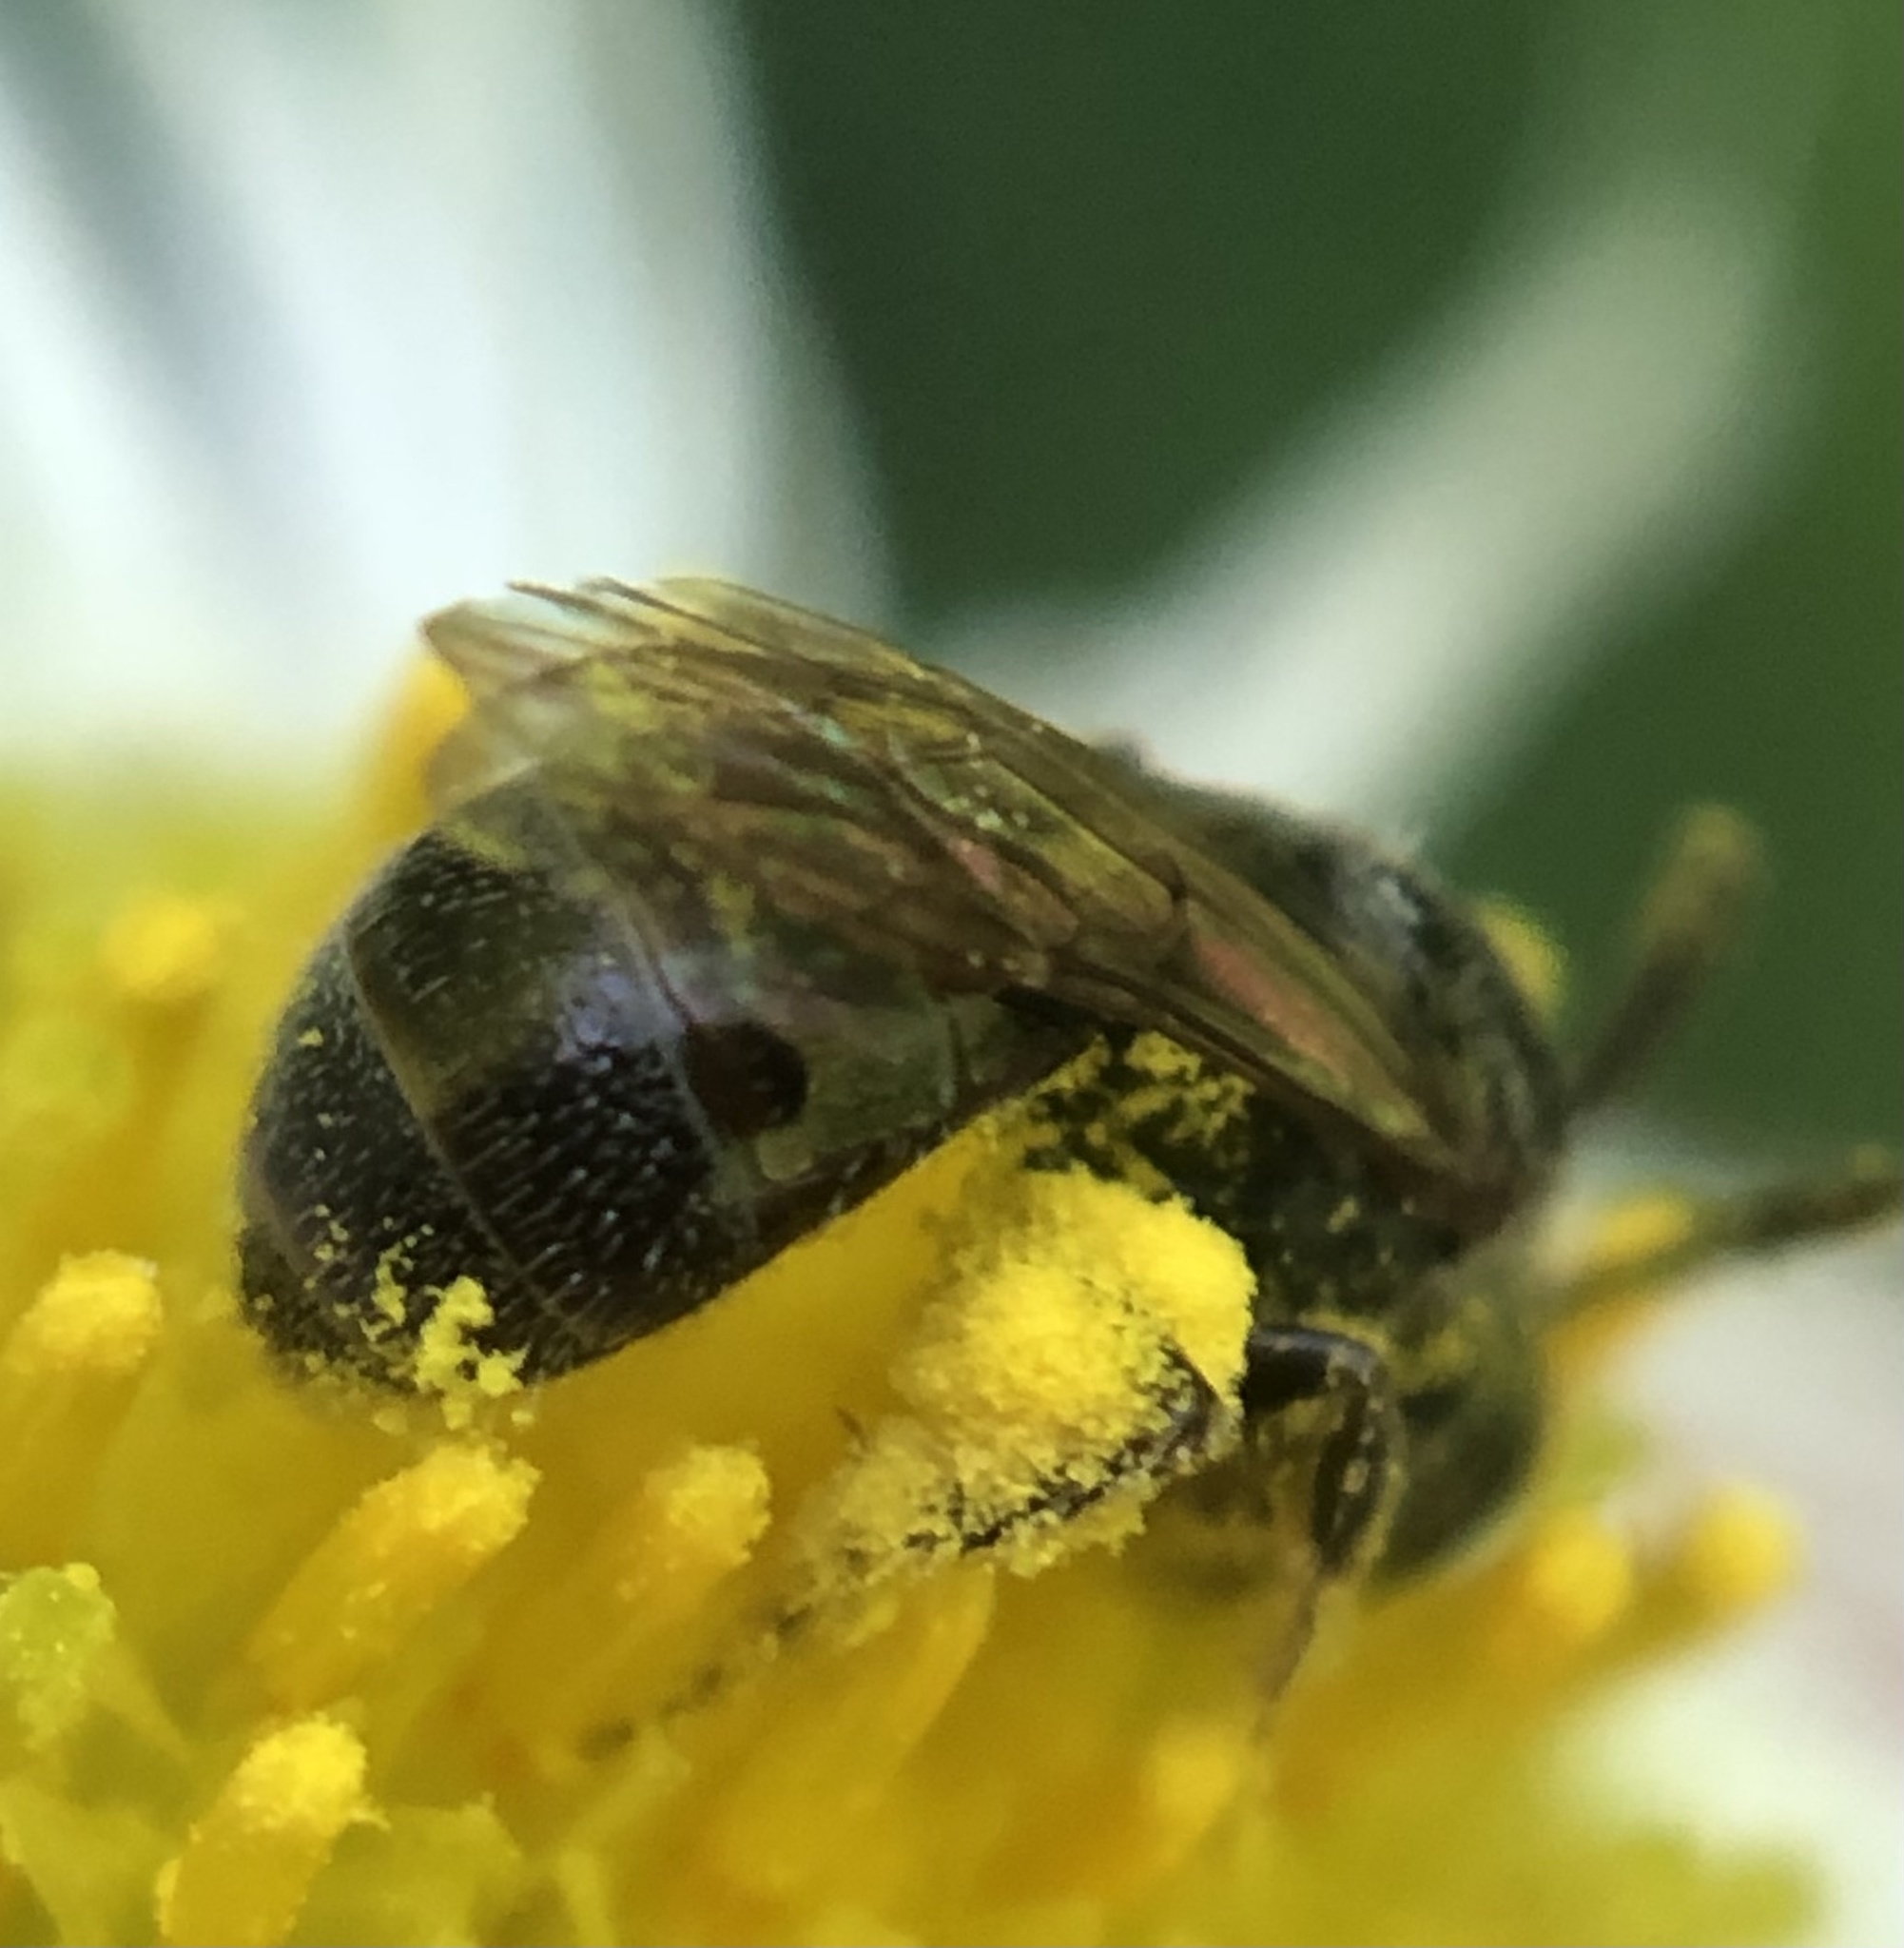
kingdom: Animalia
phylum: Arthropoda
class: Insecta
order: Hymenoptera
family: Halictidae
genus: Lasioglossum
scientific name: Lasioglossum imitatum
